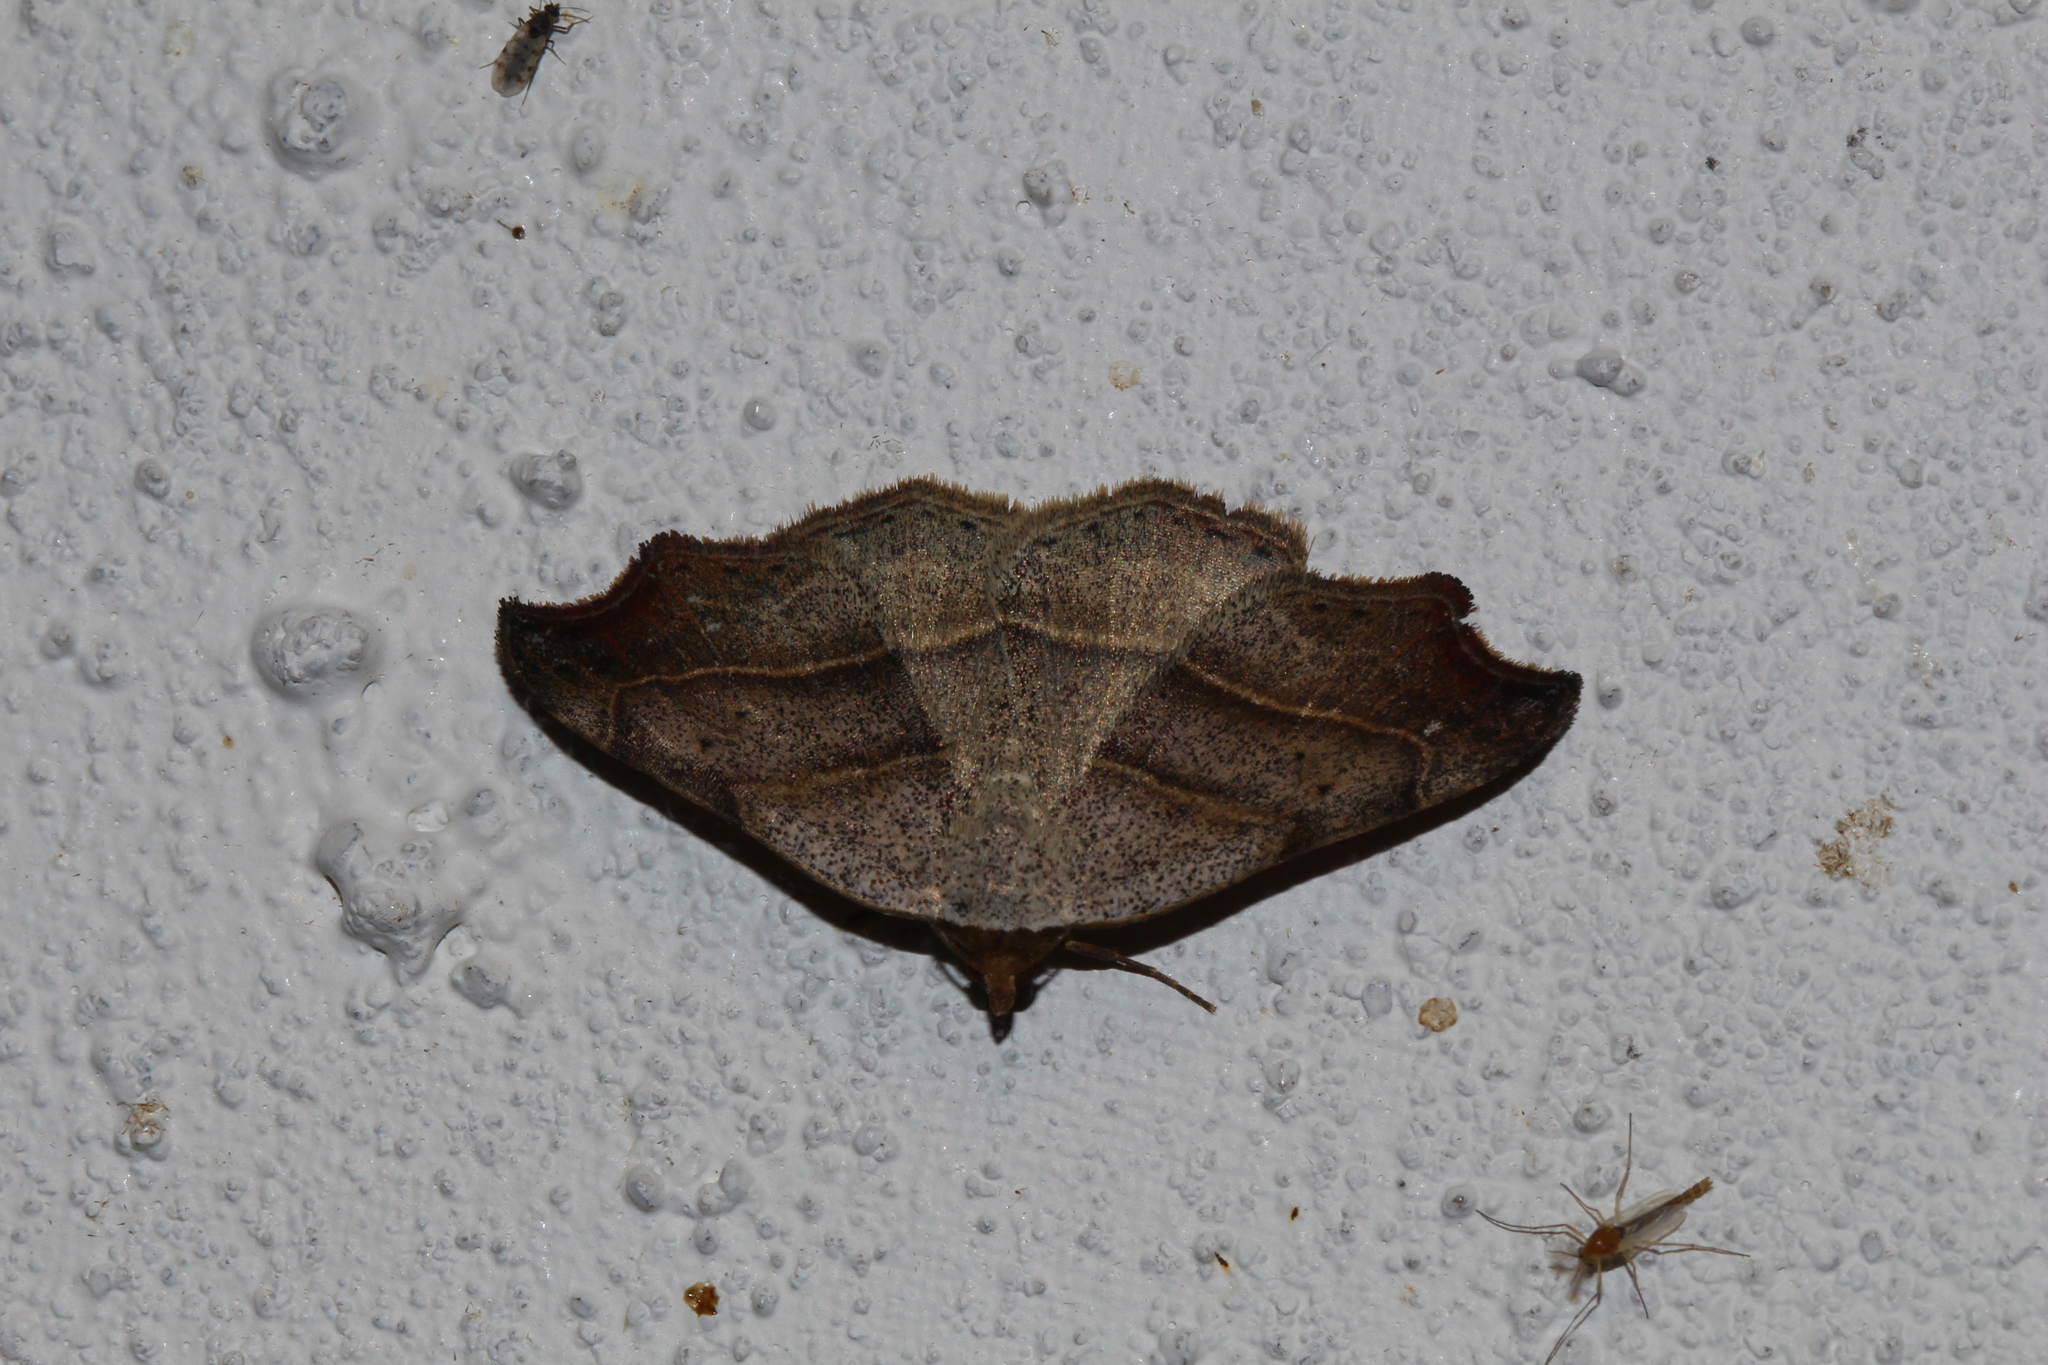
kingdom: Animalia
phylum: Arthropoda
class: Insecta
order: Lepidoptera
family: Erebidae
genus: Laspeyria
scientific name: Laspeyria flexula
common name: Beautiful hook-tip
